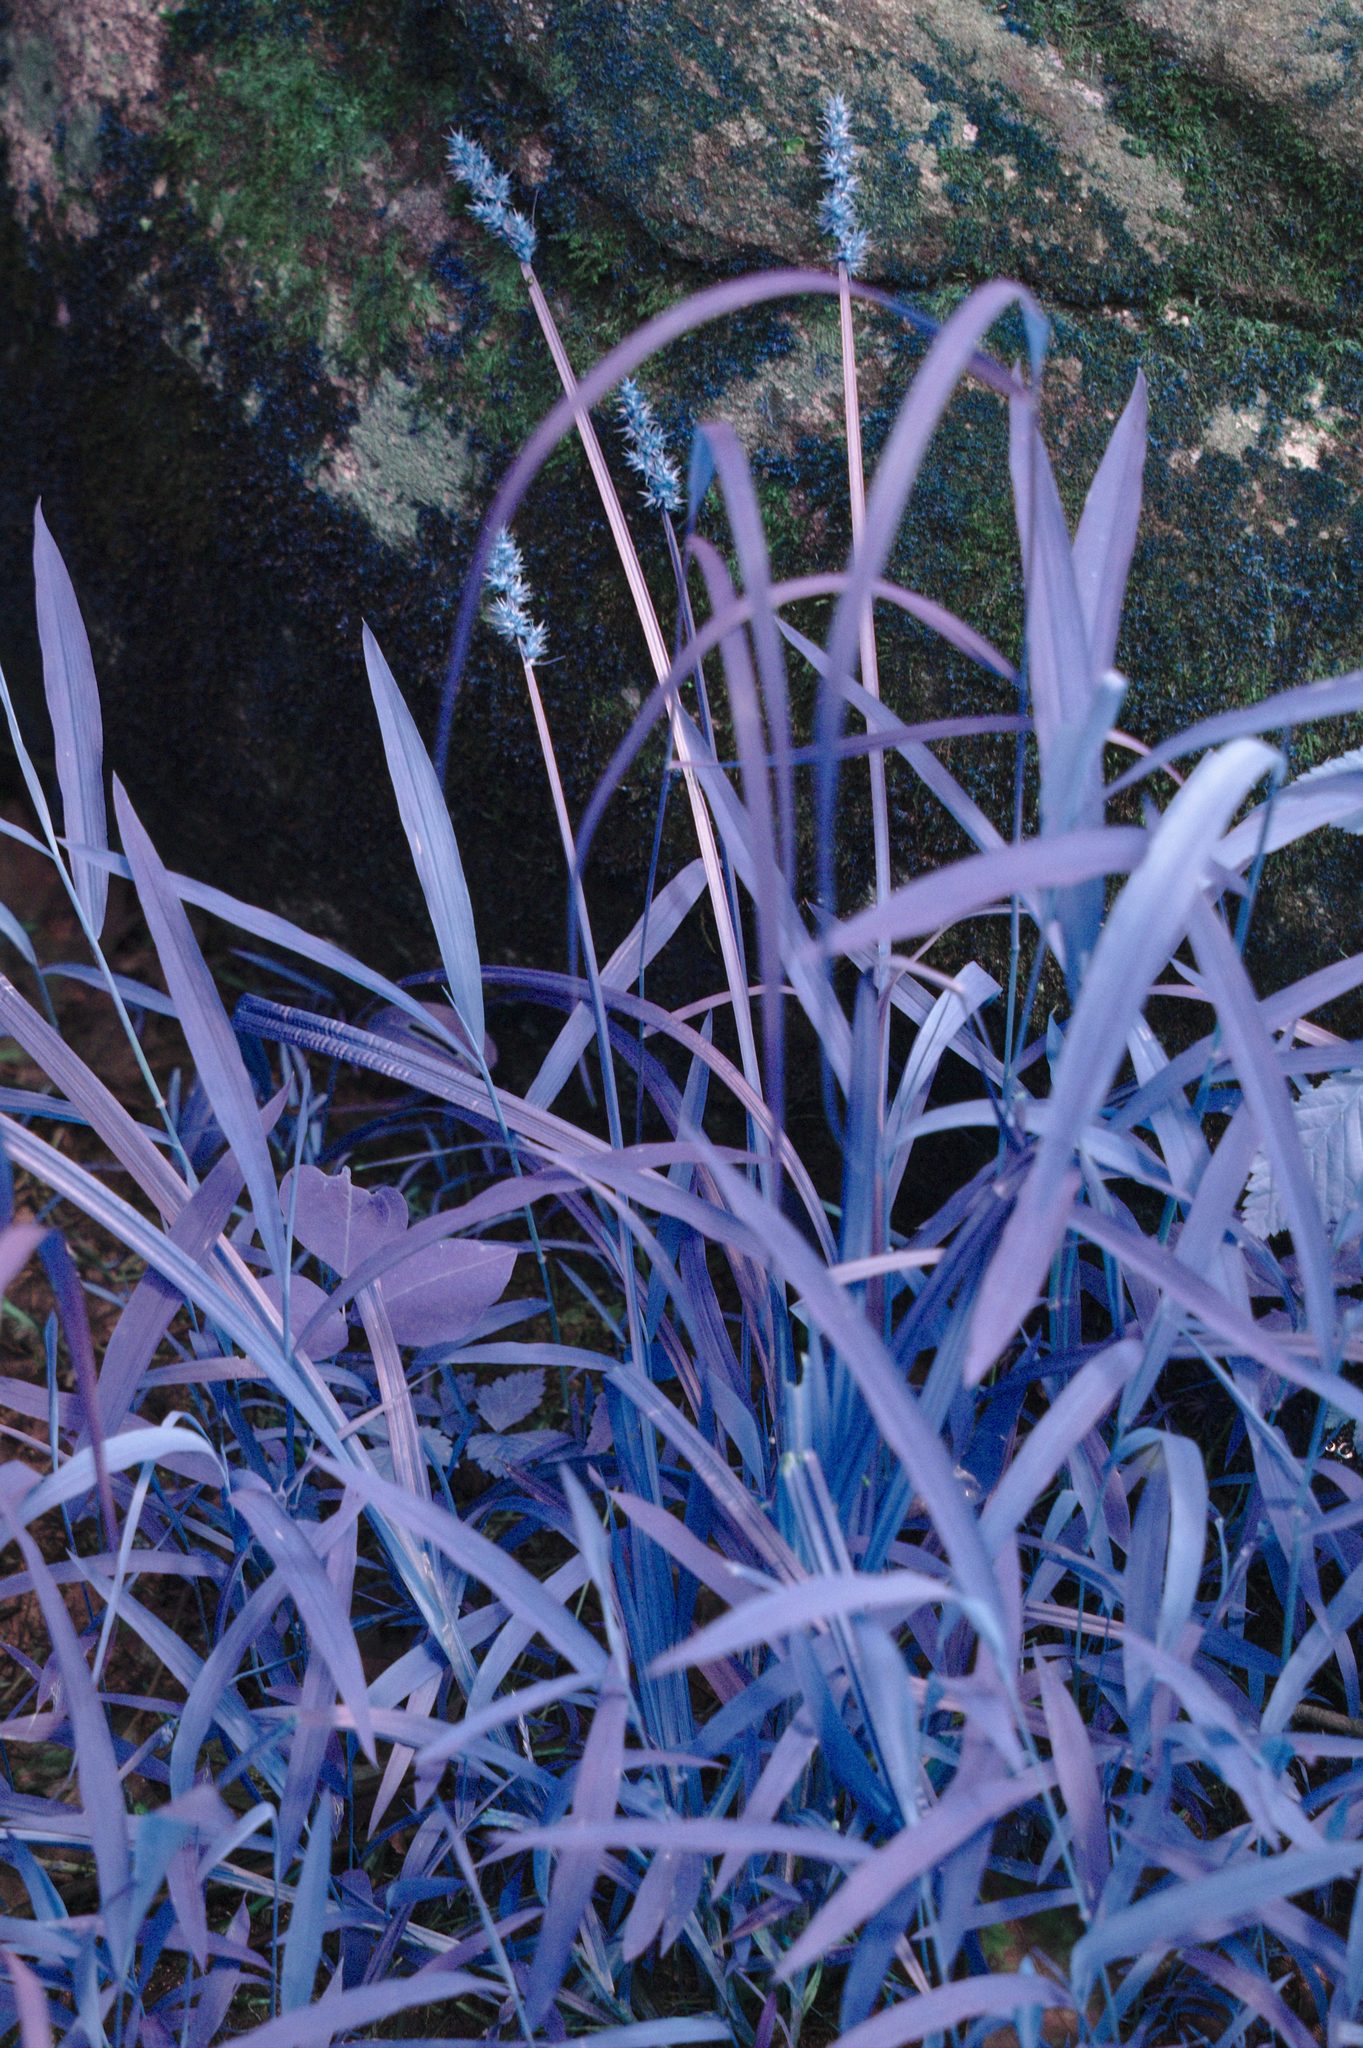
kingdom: Plantae
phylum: Tracheophyta
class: Liliopsida
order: Poales
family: Cyperaceae
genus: Carex
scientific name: Carex stipata
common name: Awl-fruited sedge
